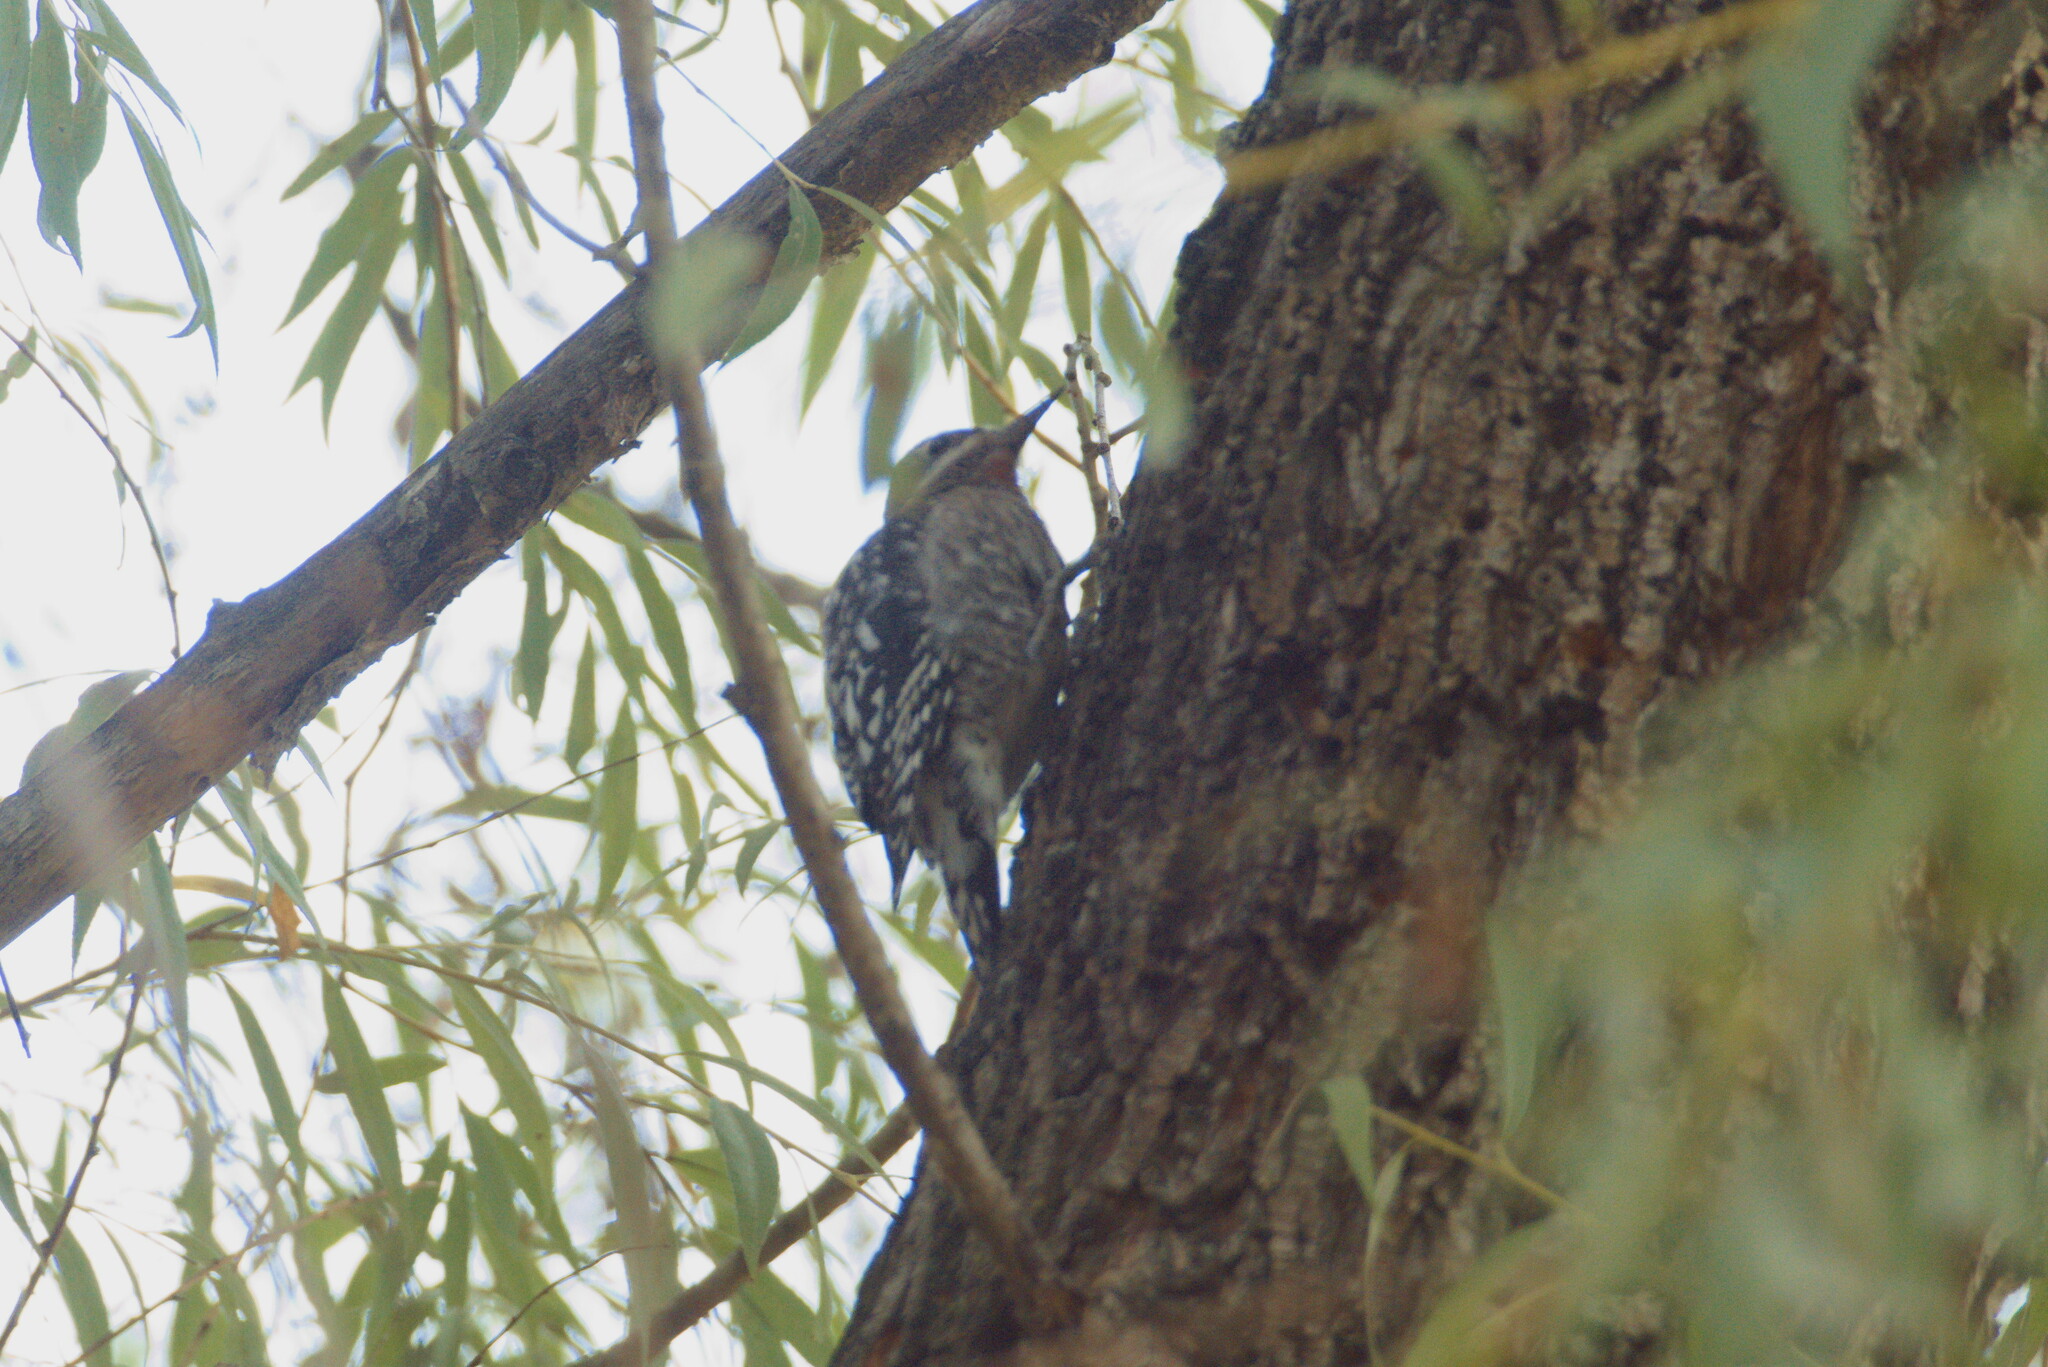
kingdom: Animalia
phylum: Chordata
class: Aves
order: Piciformes
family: Picidae
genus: Sphyrapicus
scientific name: Sphyrapicus varius
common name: Yellow-bellied sapsucker
